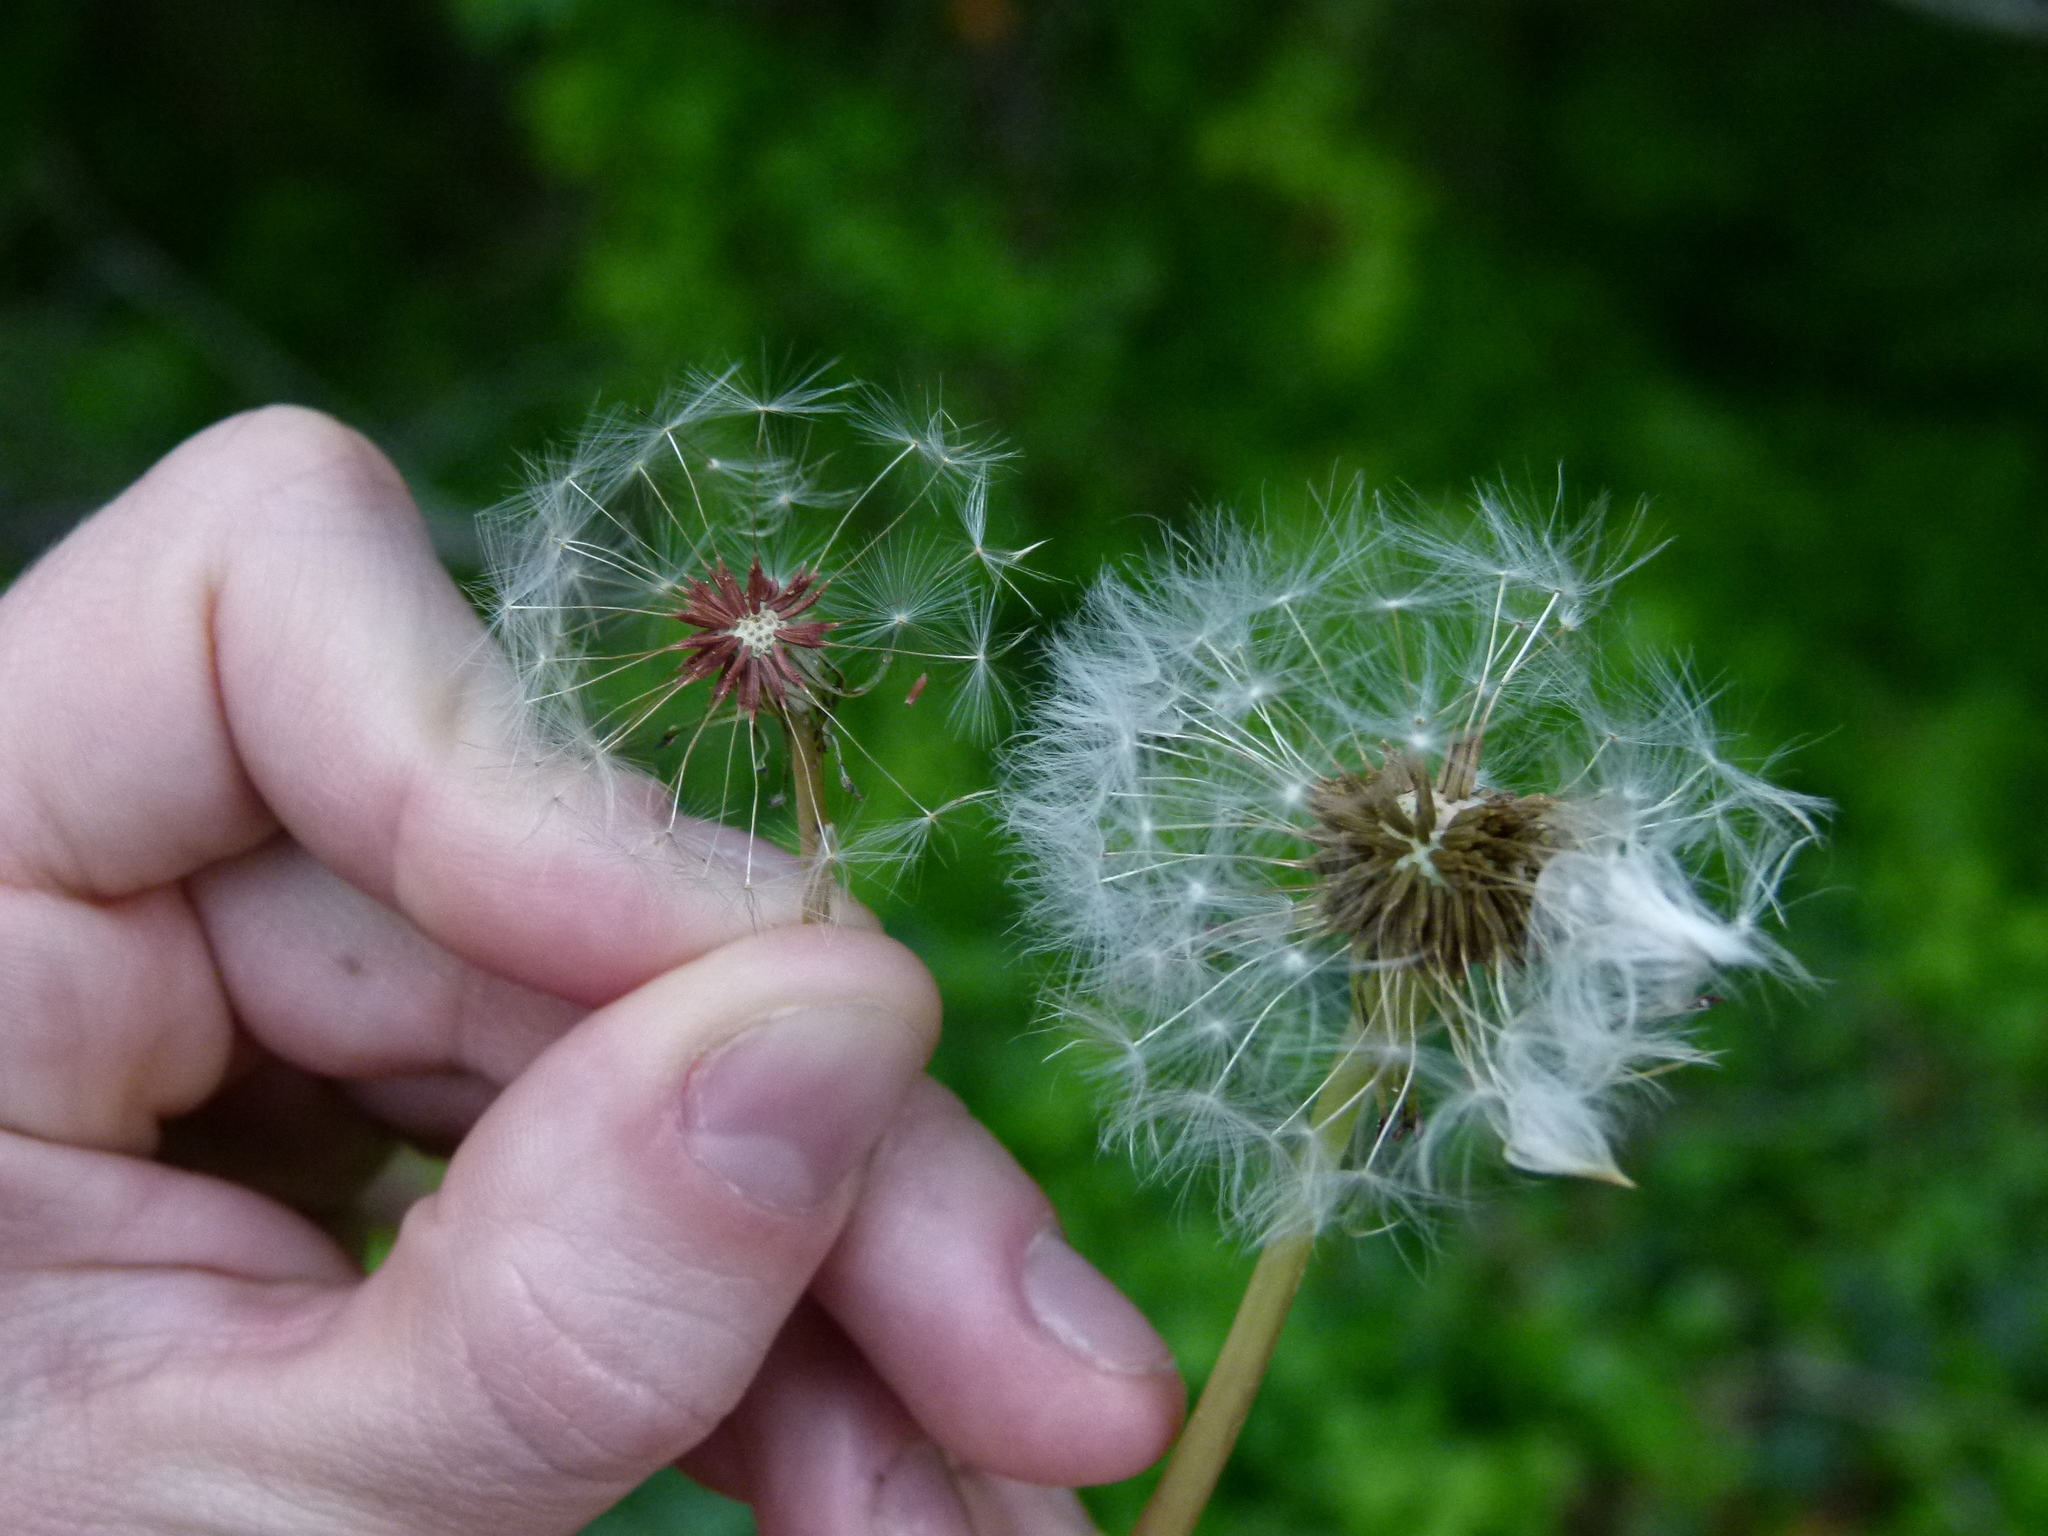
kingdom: Plantae
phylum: Tracheophyta
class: Magnoliopsida
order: Asterales
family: Asteraceae
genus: Taraxacum
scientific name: Taraxacum erythrospermum
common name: Rock dandelion
